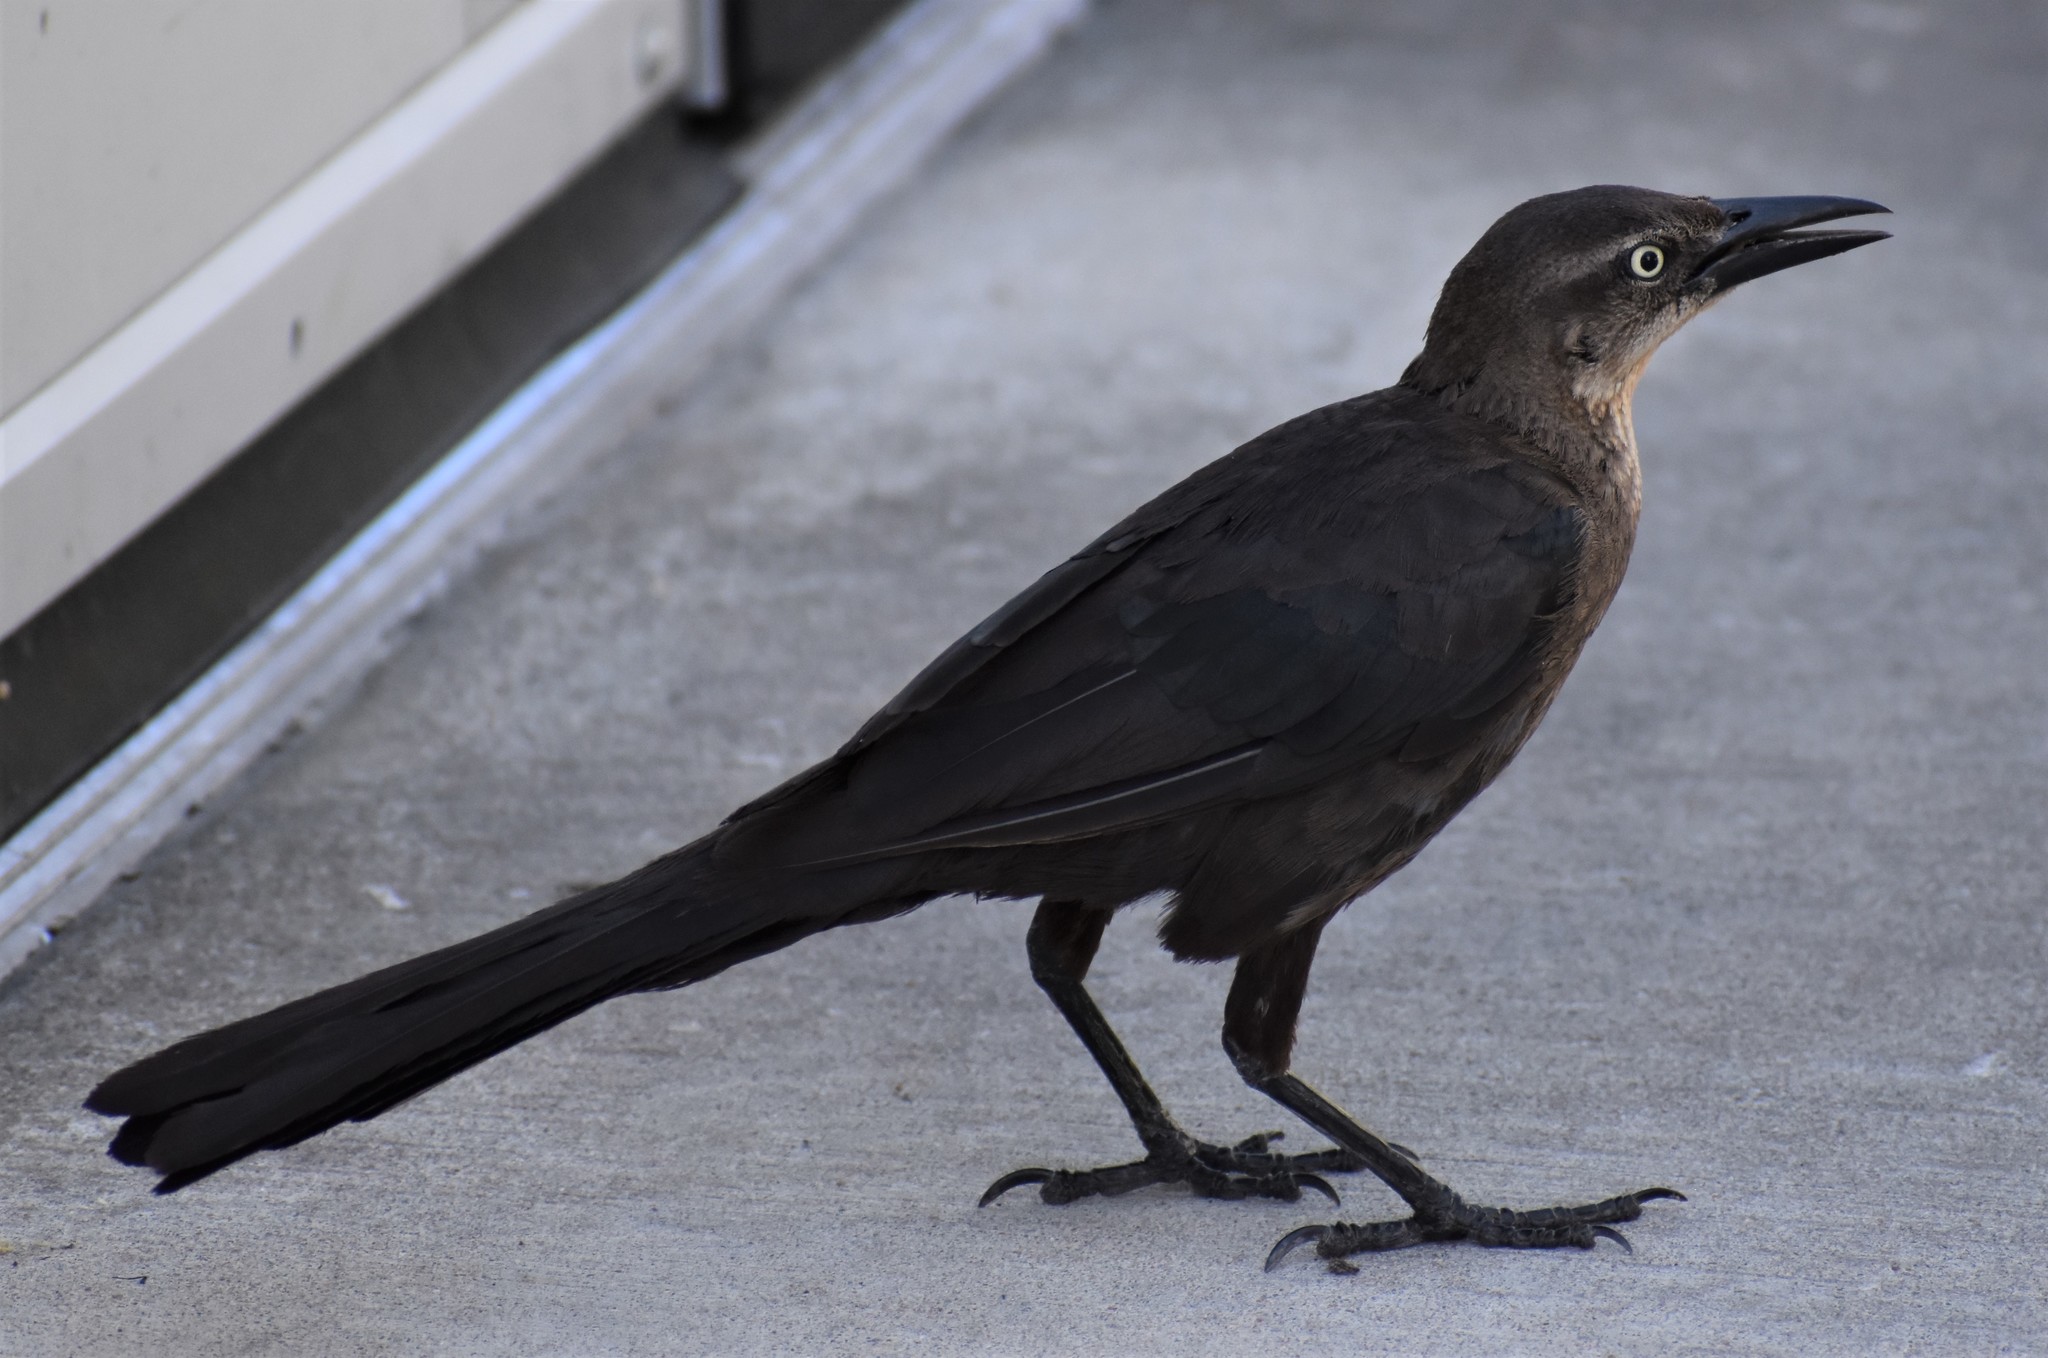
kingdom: Animalia
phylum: Chordata
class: Aves
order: Passeriformes
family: Icteridae
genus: Quiscalus
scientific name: Quiscalus mexicanus
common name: Great-tailed grackle
